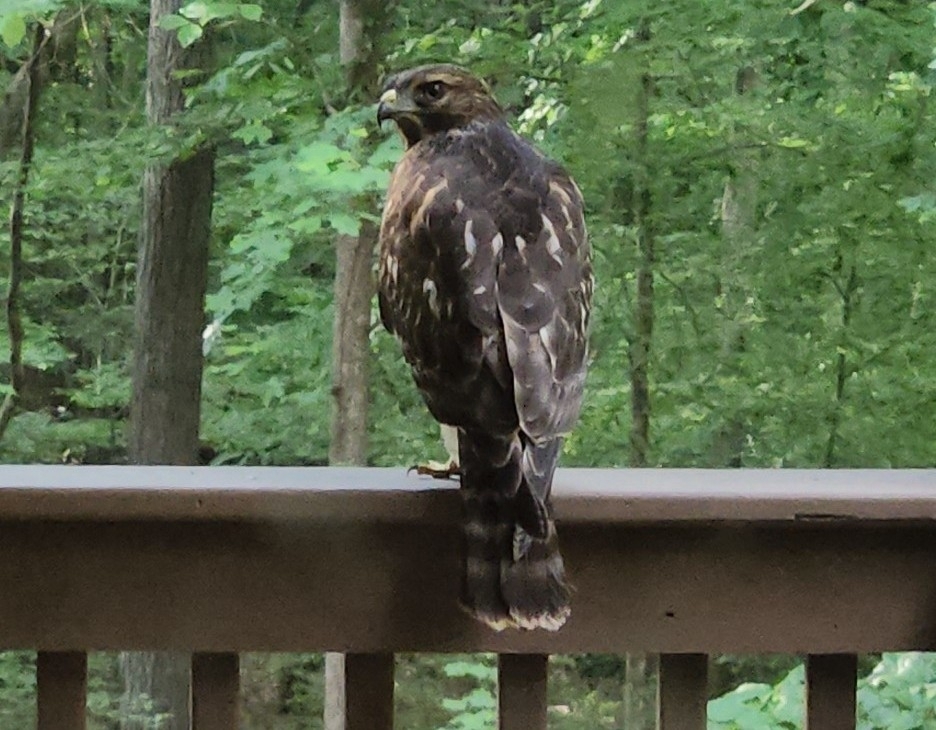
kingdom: Animalia
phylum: Chordata
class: Aves
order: Accipitriformes
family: Accipitridae
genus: Buteo
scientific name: Buteo lineatus
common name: Red-shouldered hawk
